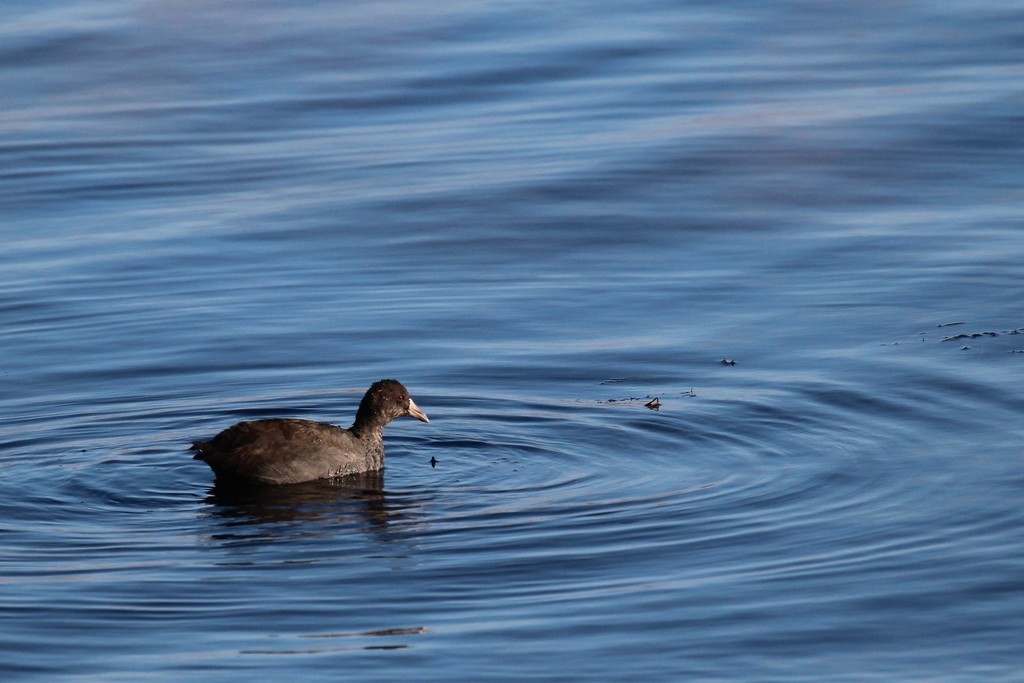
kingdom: Animalia
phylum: Chordata
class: Aves
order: Gruiformes
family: Rallidae
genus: Fulica
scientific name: Fulica americana
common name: American coot
